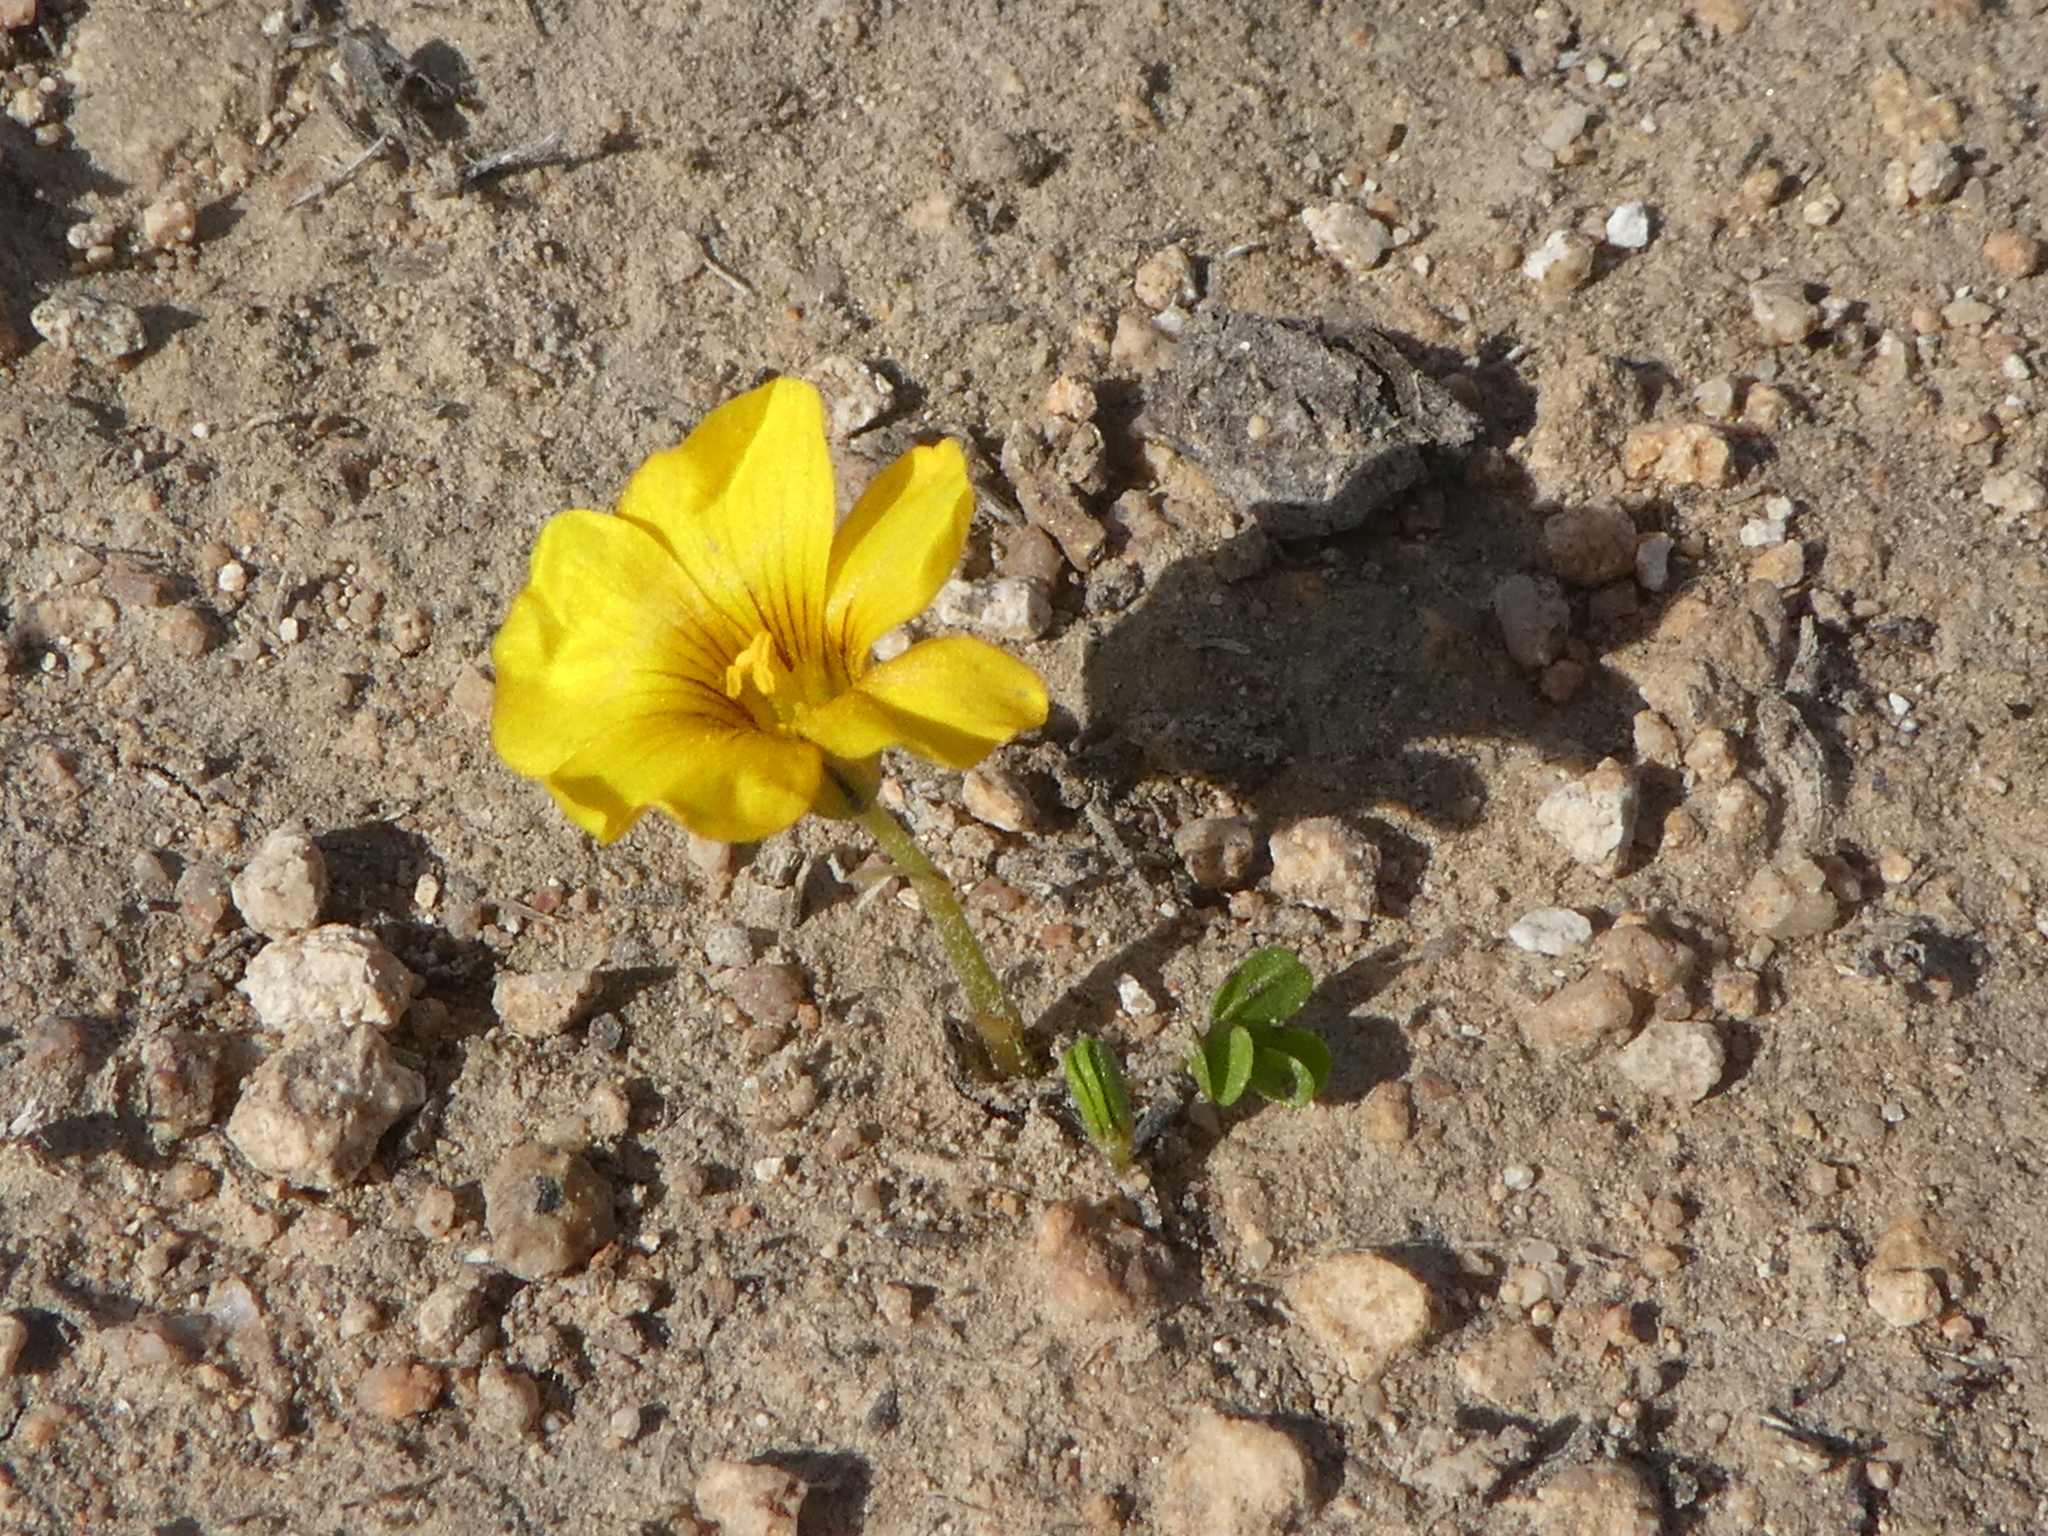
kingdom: Plantae
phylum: Tracheophyta
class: Magnoliopsida
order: Oxalidales
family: Oxalidaceae
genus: Oxalis
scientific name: Oxalis perdicaria
